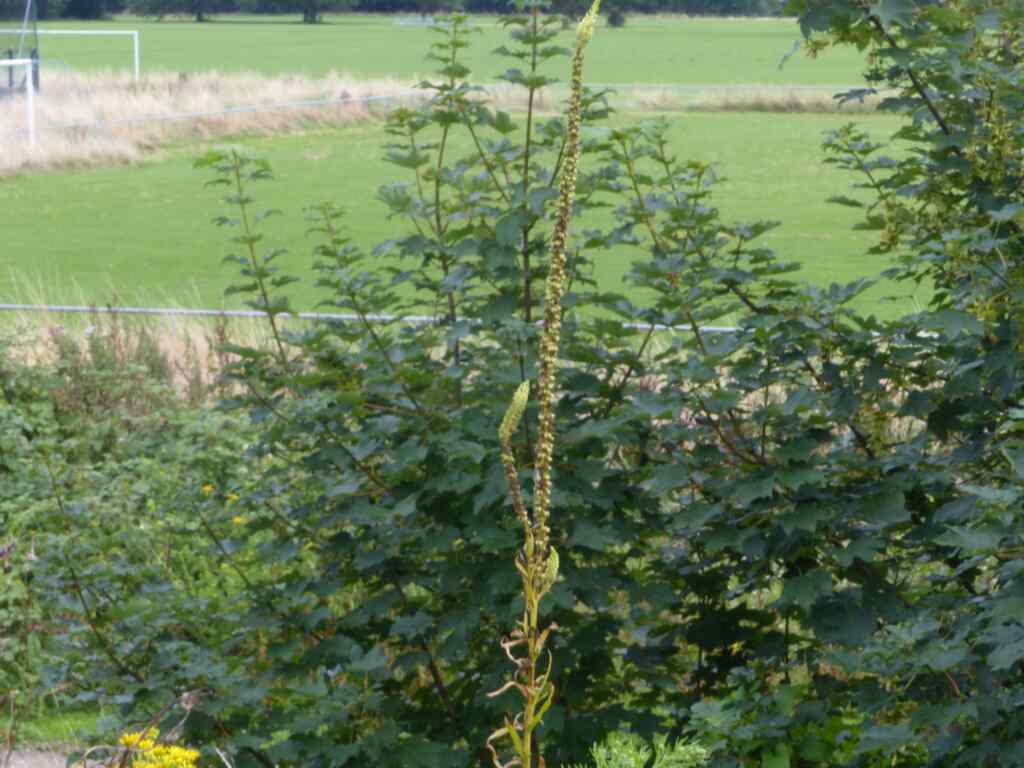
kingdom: Plantae
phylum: Tracheophyta
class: Magnoliopsida
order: Brassicales
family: Resedaceae
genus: Reseda
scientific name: Reseda luteola
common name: Weld
